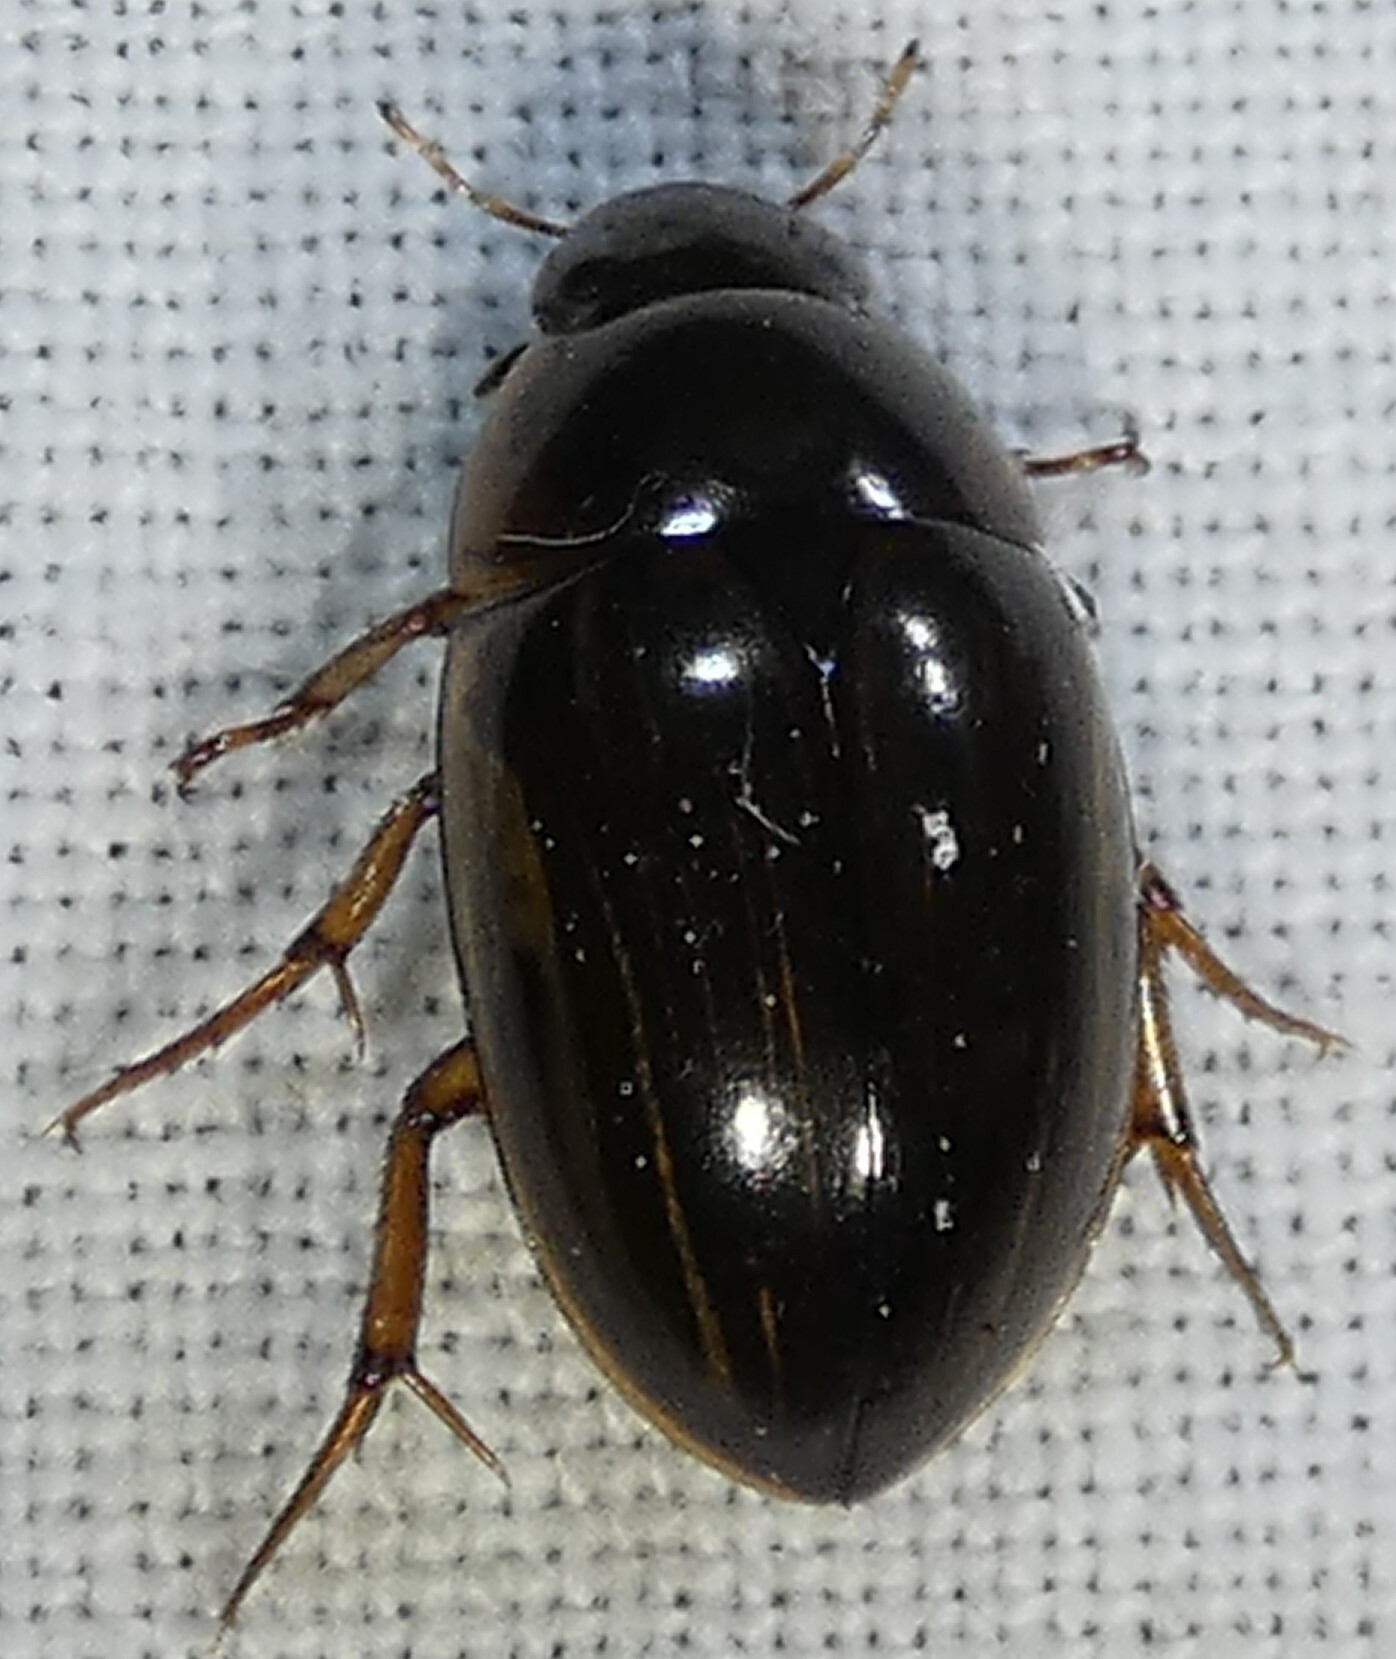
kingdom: Animalia
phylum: Arthropoda
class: Insecta
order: Coleoptera
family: Hydrophilidae
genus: Tropisternus
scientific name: Tropisternus collaris
